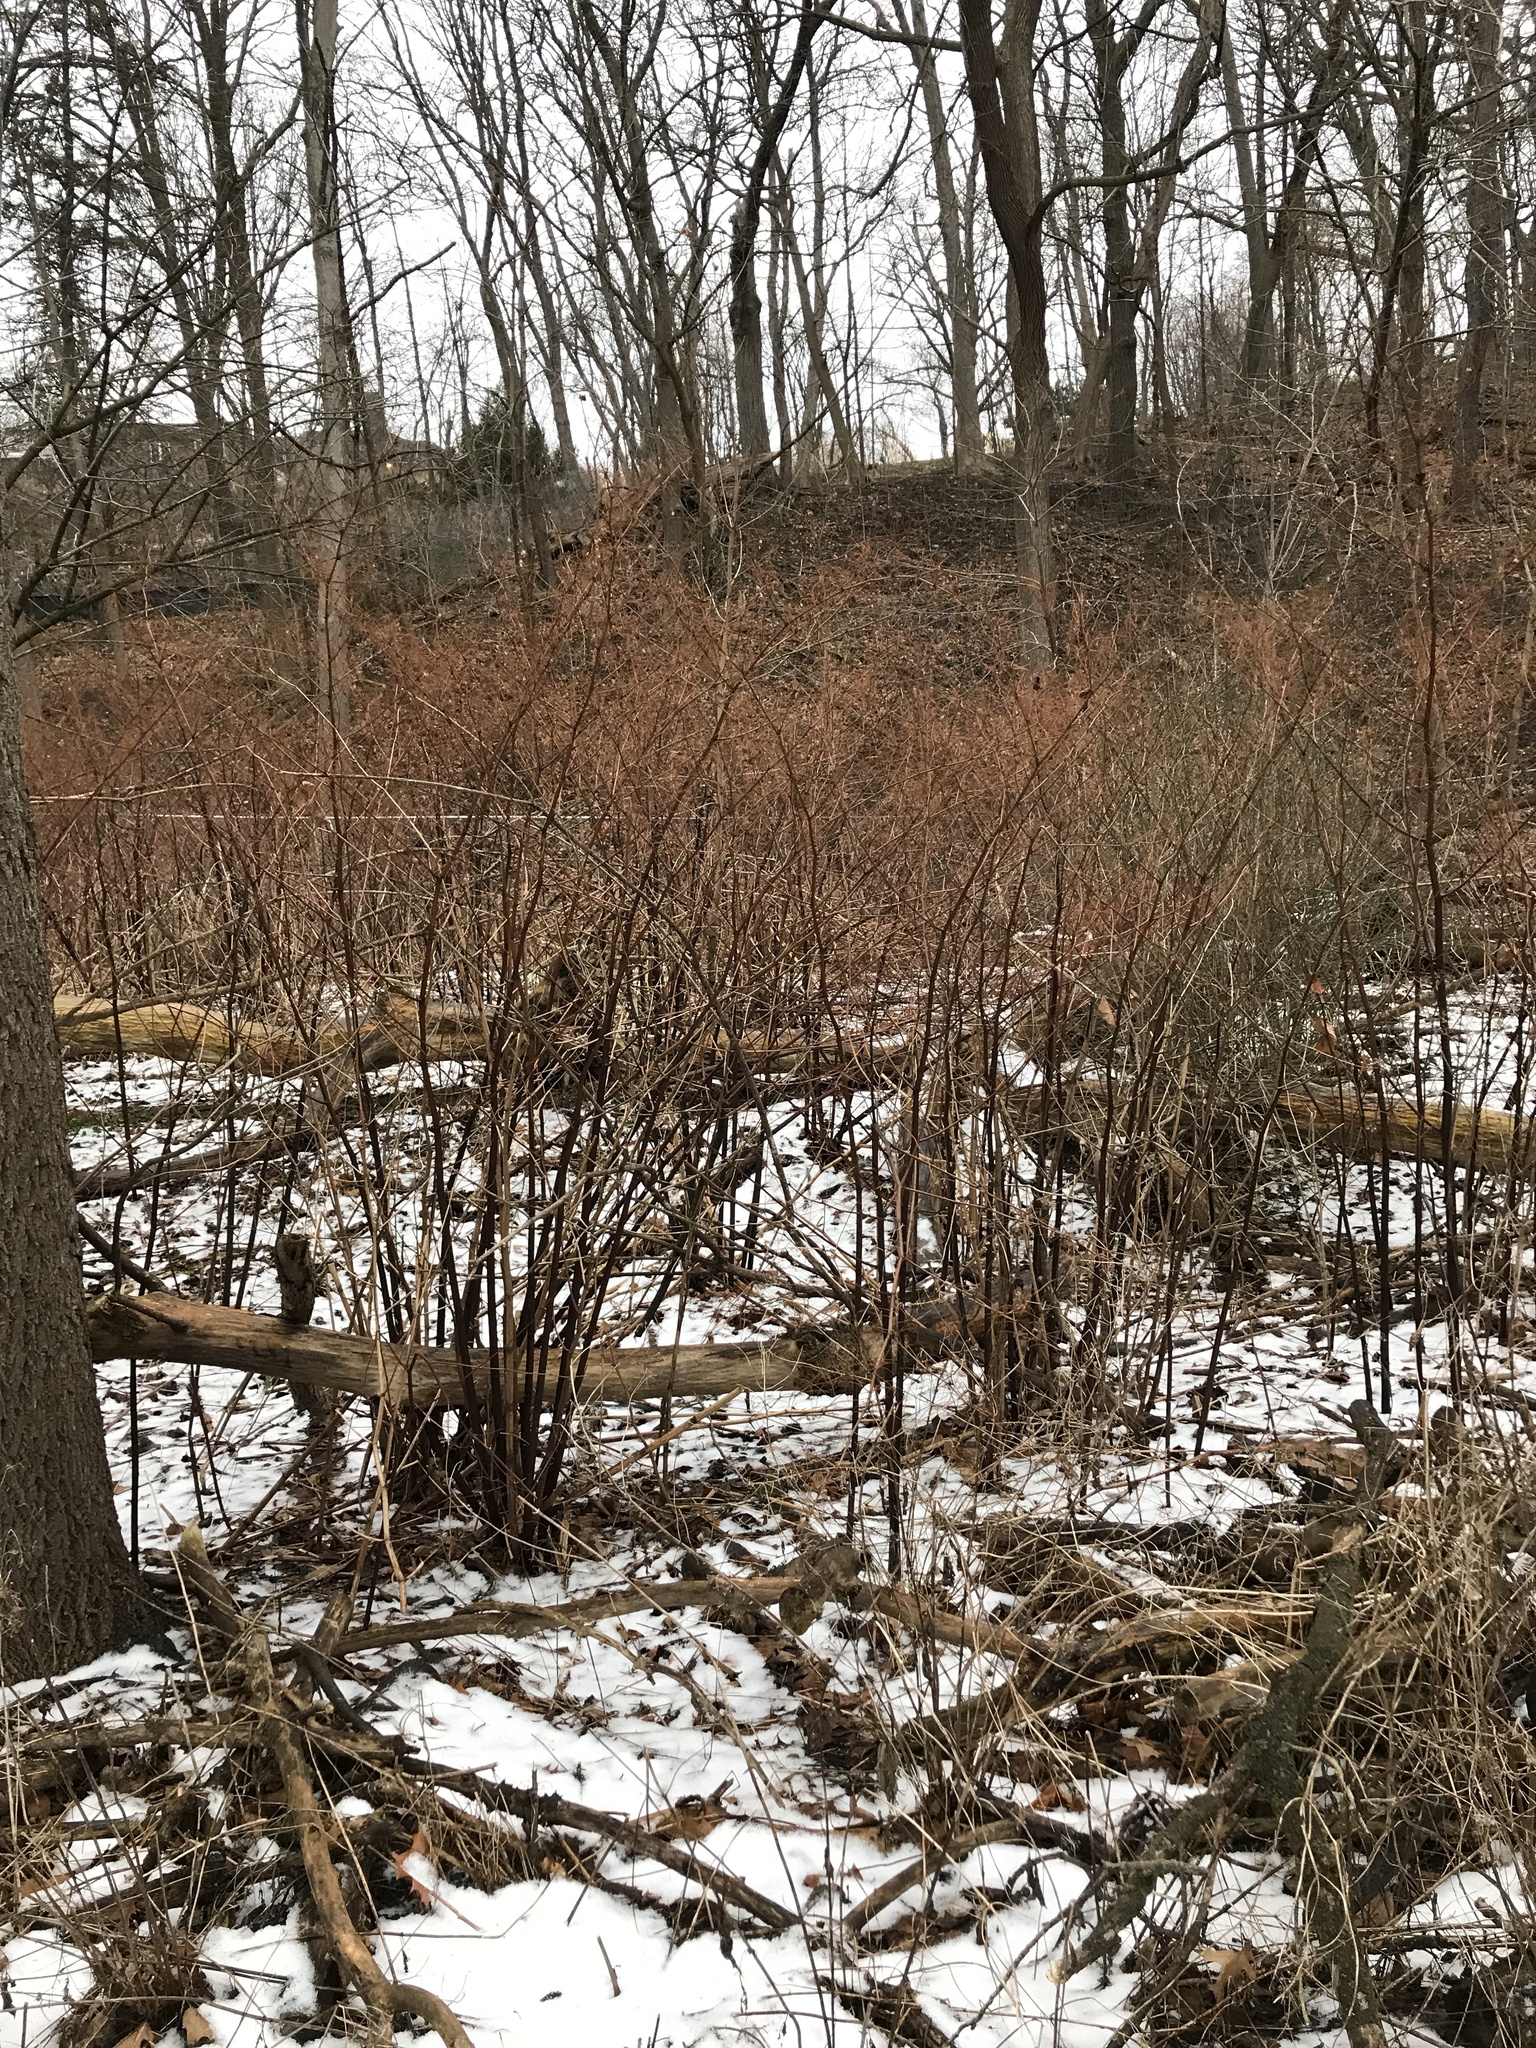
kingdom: Plantae
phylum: Tracheophyta
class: Magnoliopsida
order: Caryophyllales
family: Polygonaceae
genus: Reynoutria
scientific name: Reynoutria japonica
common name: Japanese knotweed
